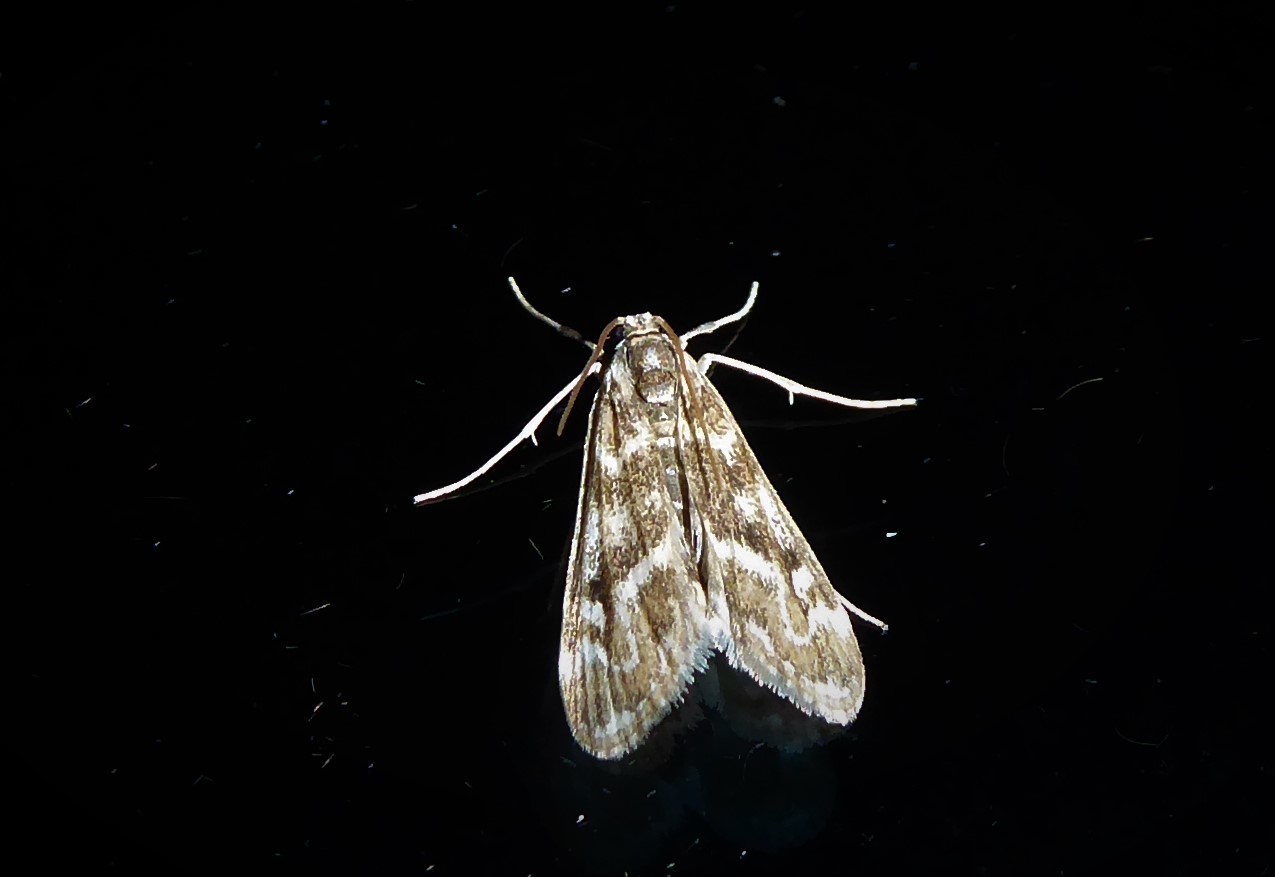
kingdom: Animalia
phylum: Arthropoda
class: Insecta
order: Lepidoptera
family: Crambidae
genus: Hygraula
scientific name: Hygraula nitens
